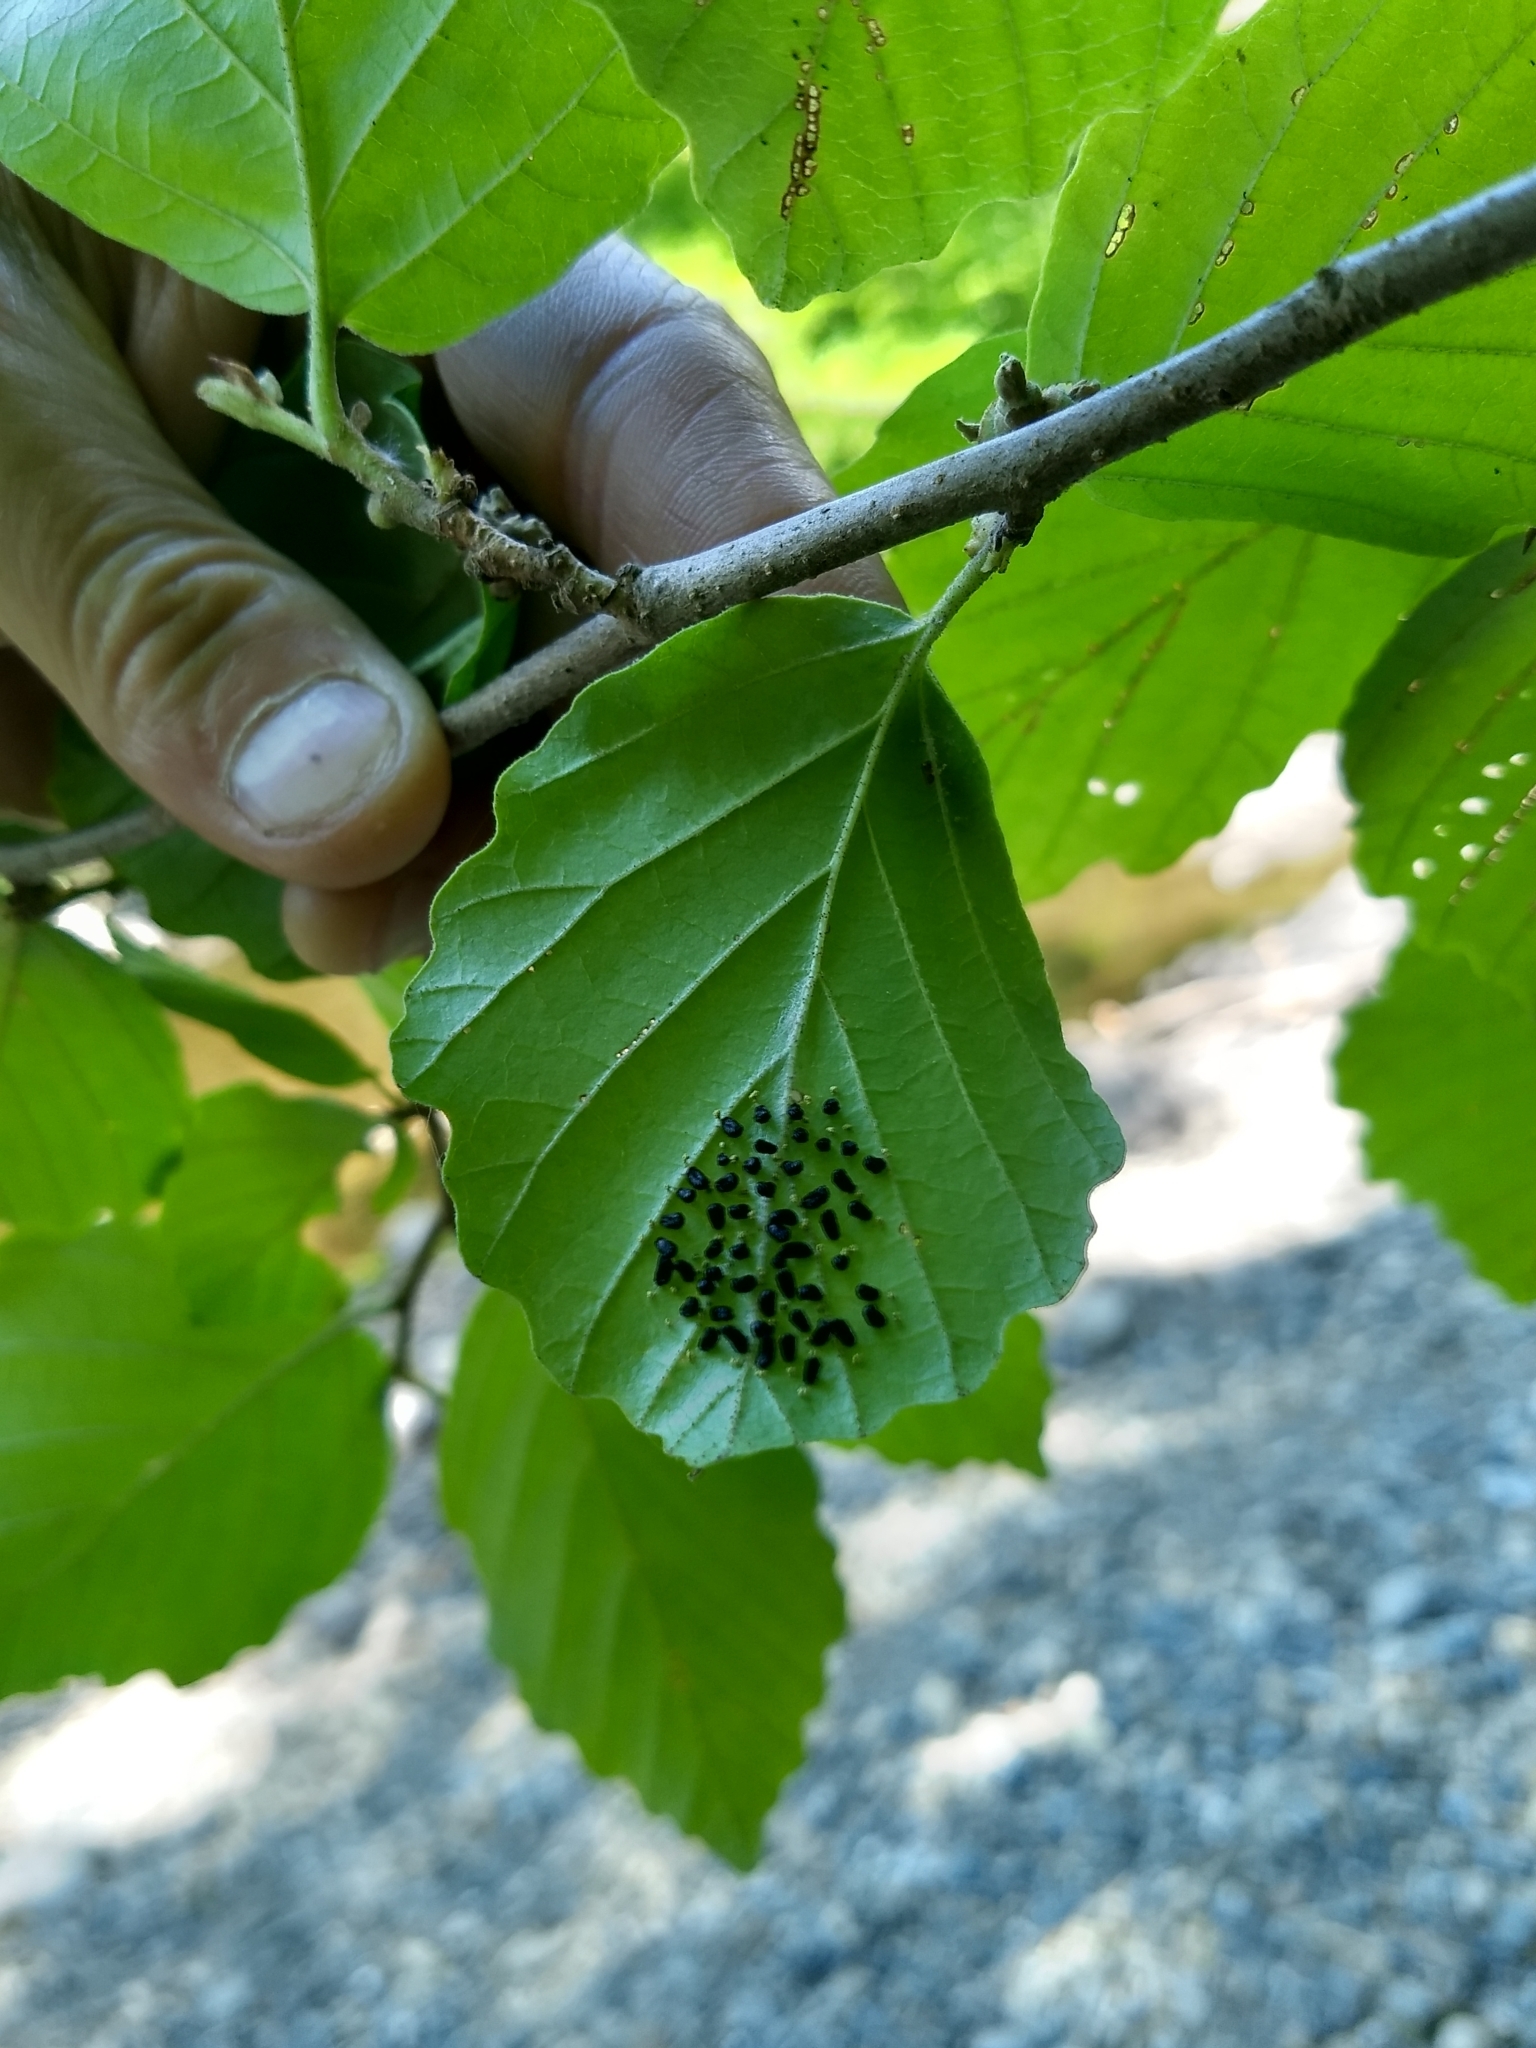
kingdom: Animalia
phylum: Arthropoda
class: Insecta
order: Hymenoptera
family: Eulophidae
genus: Eulophus
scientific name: Eulophus
